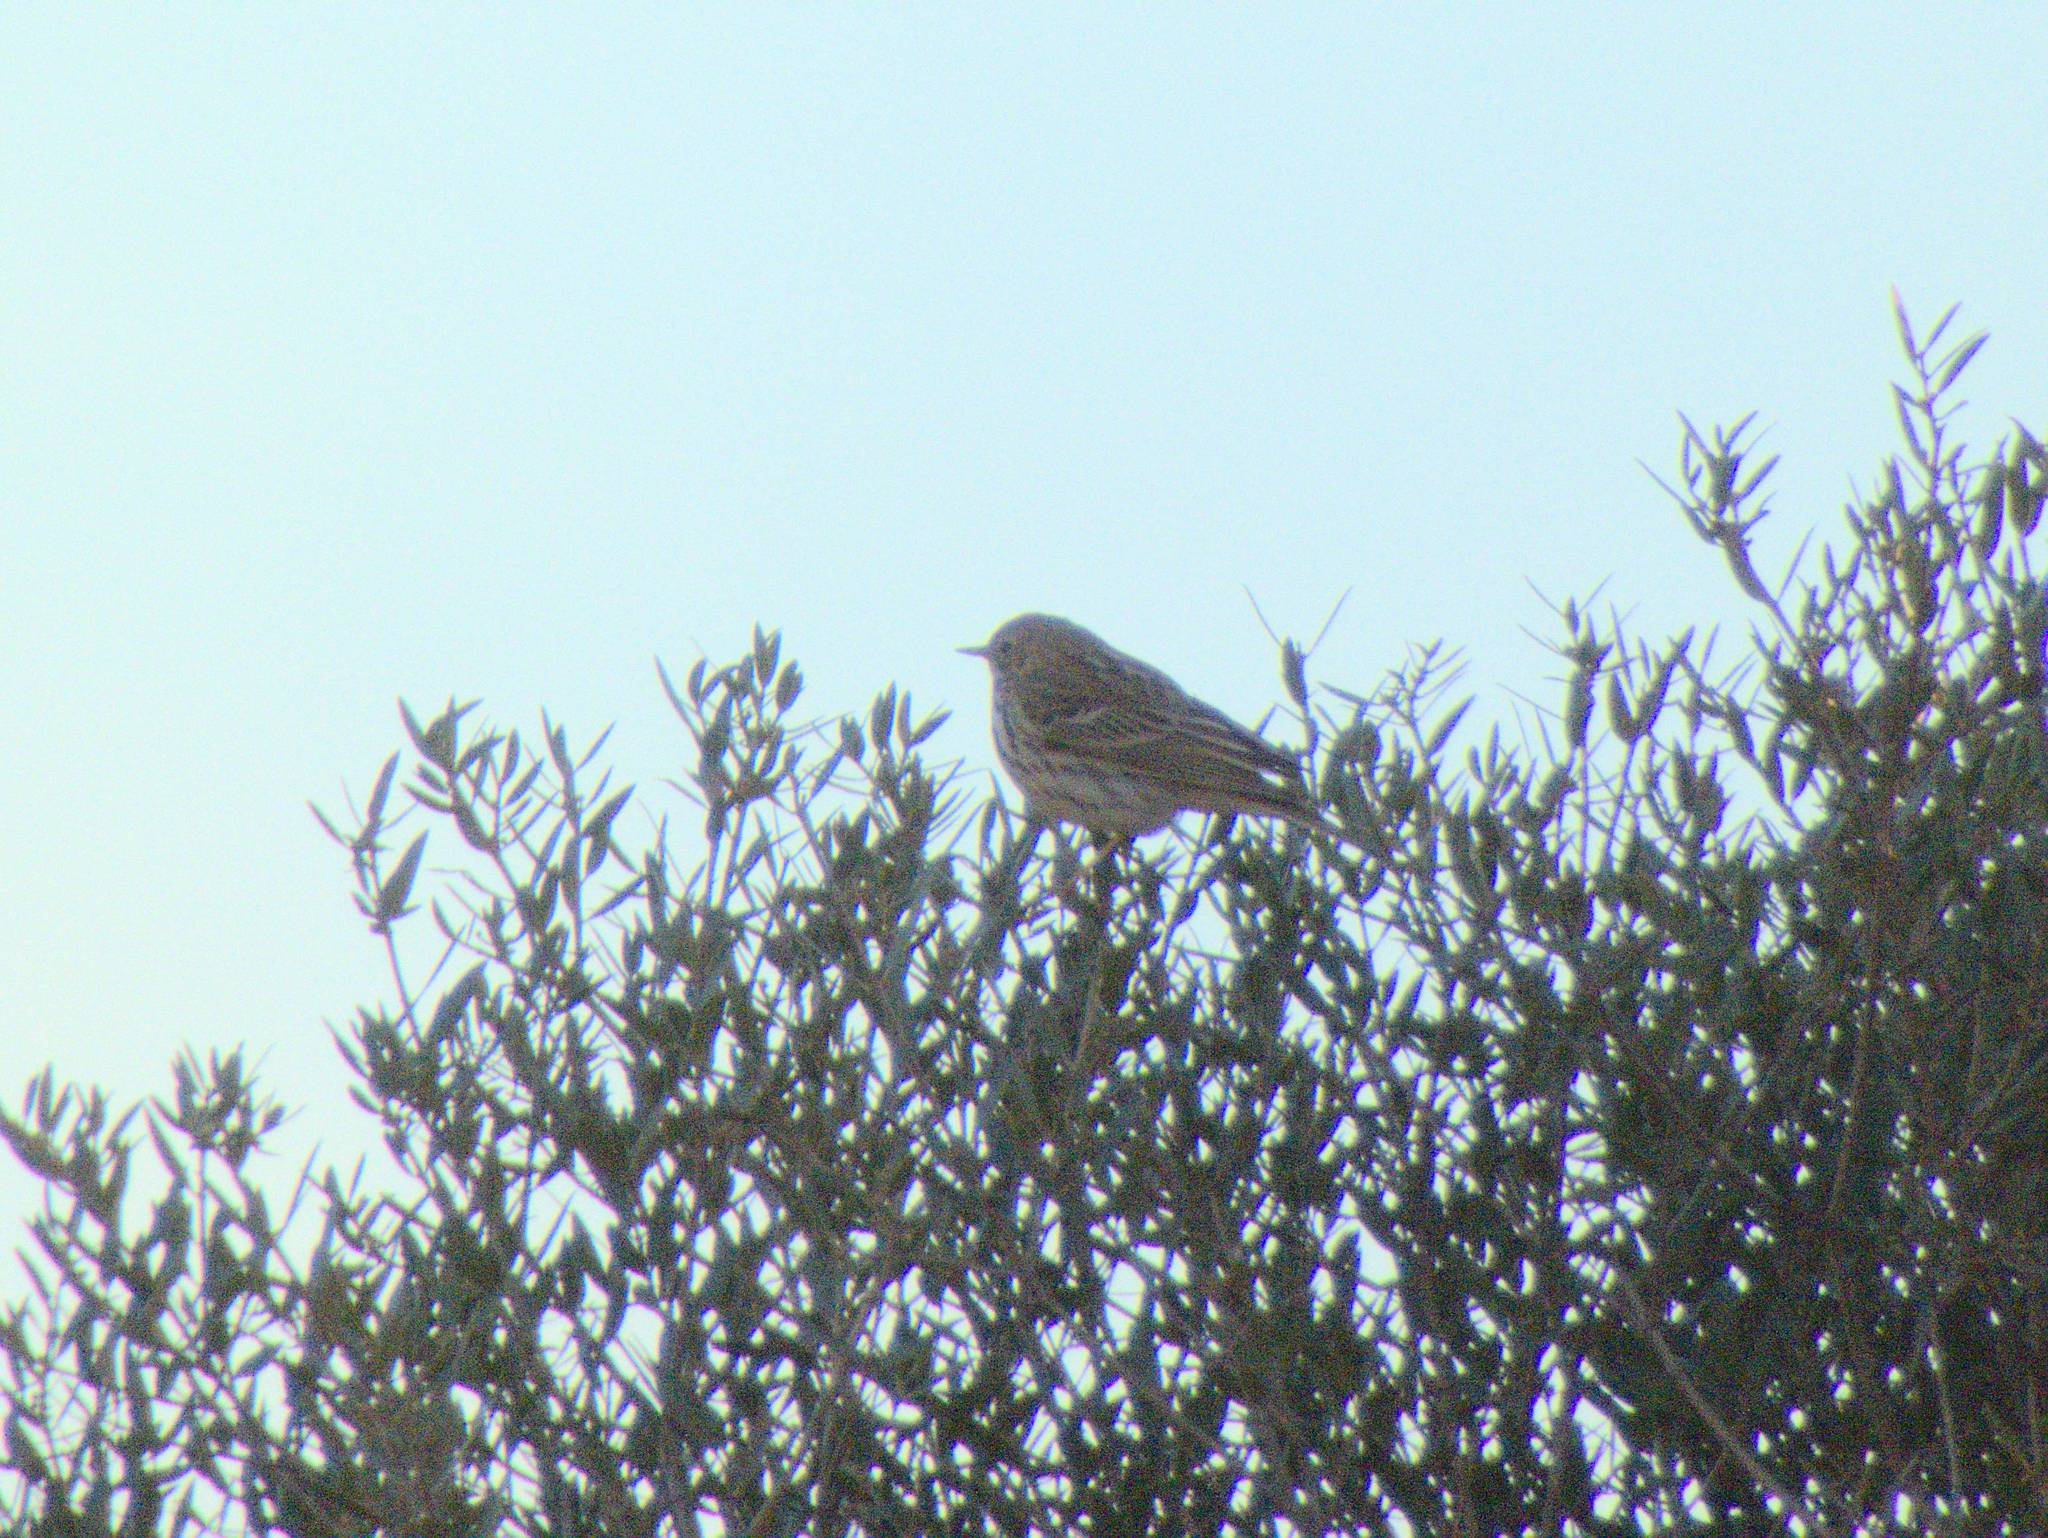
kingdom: Animalia
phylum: Chordata
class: Aves
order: Passeriformes
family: Motacillidae
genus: Anthus
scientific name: Anthus pratensis
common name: Meadow pipit
